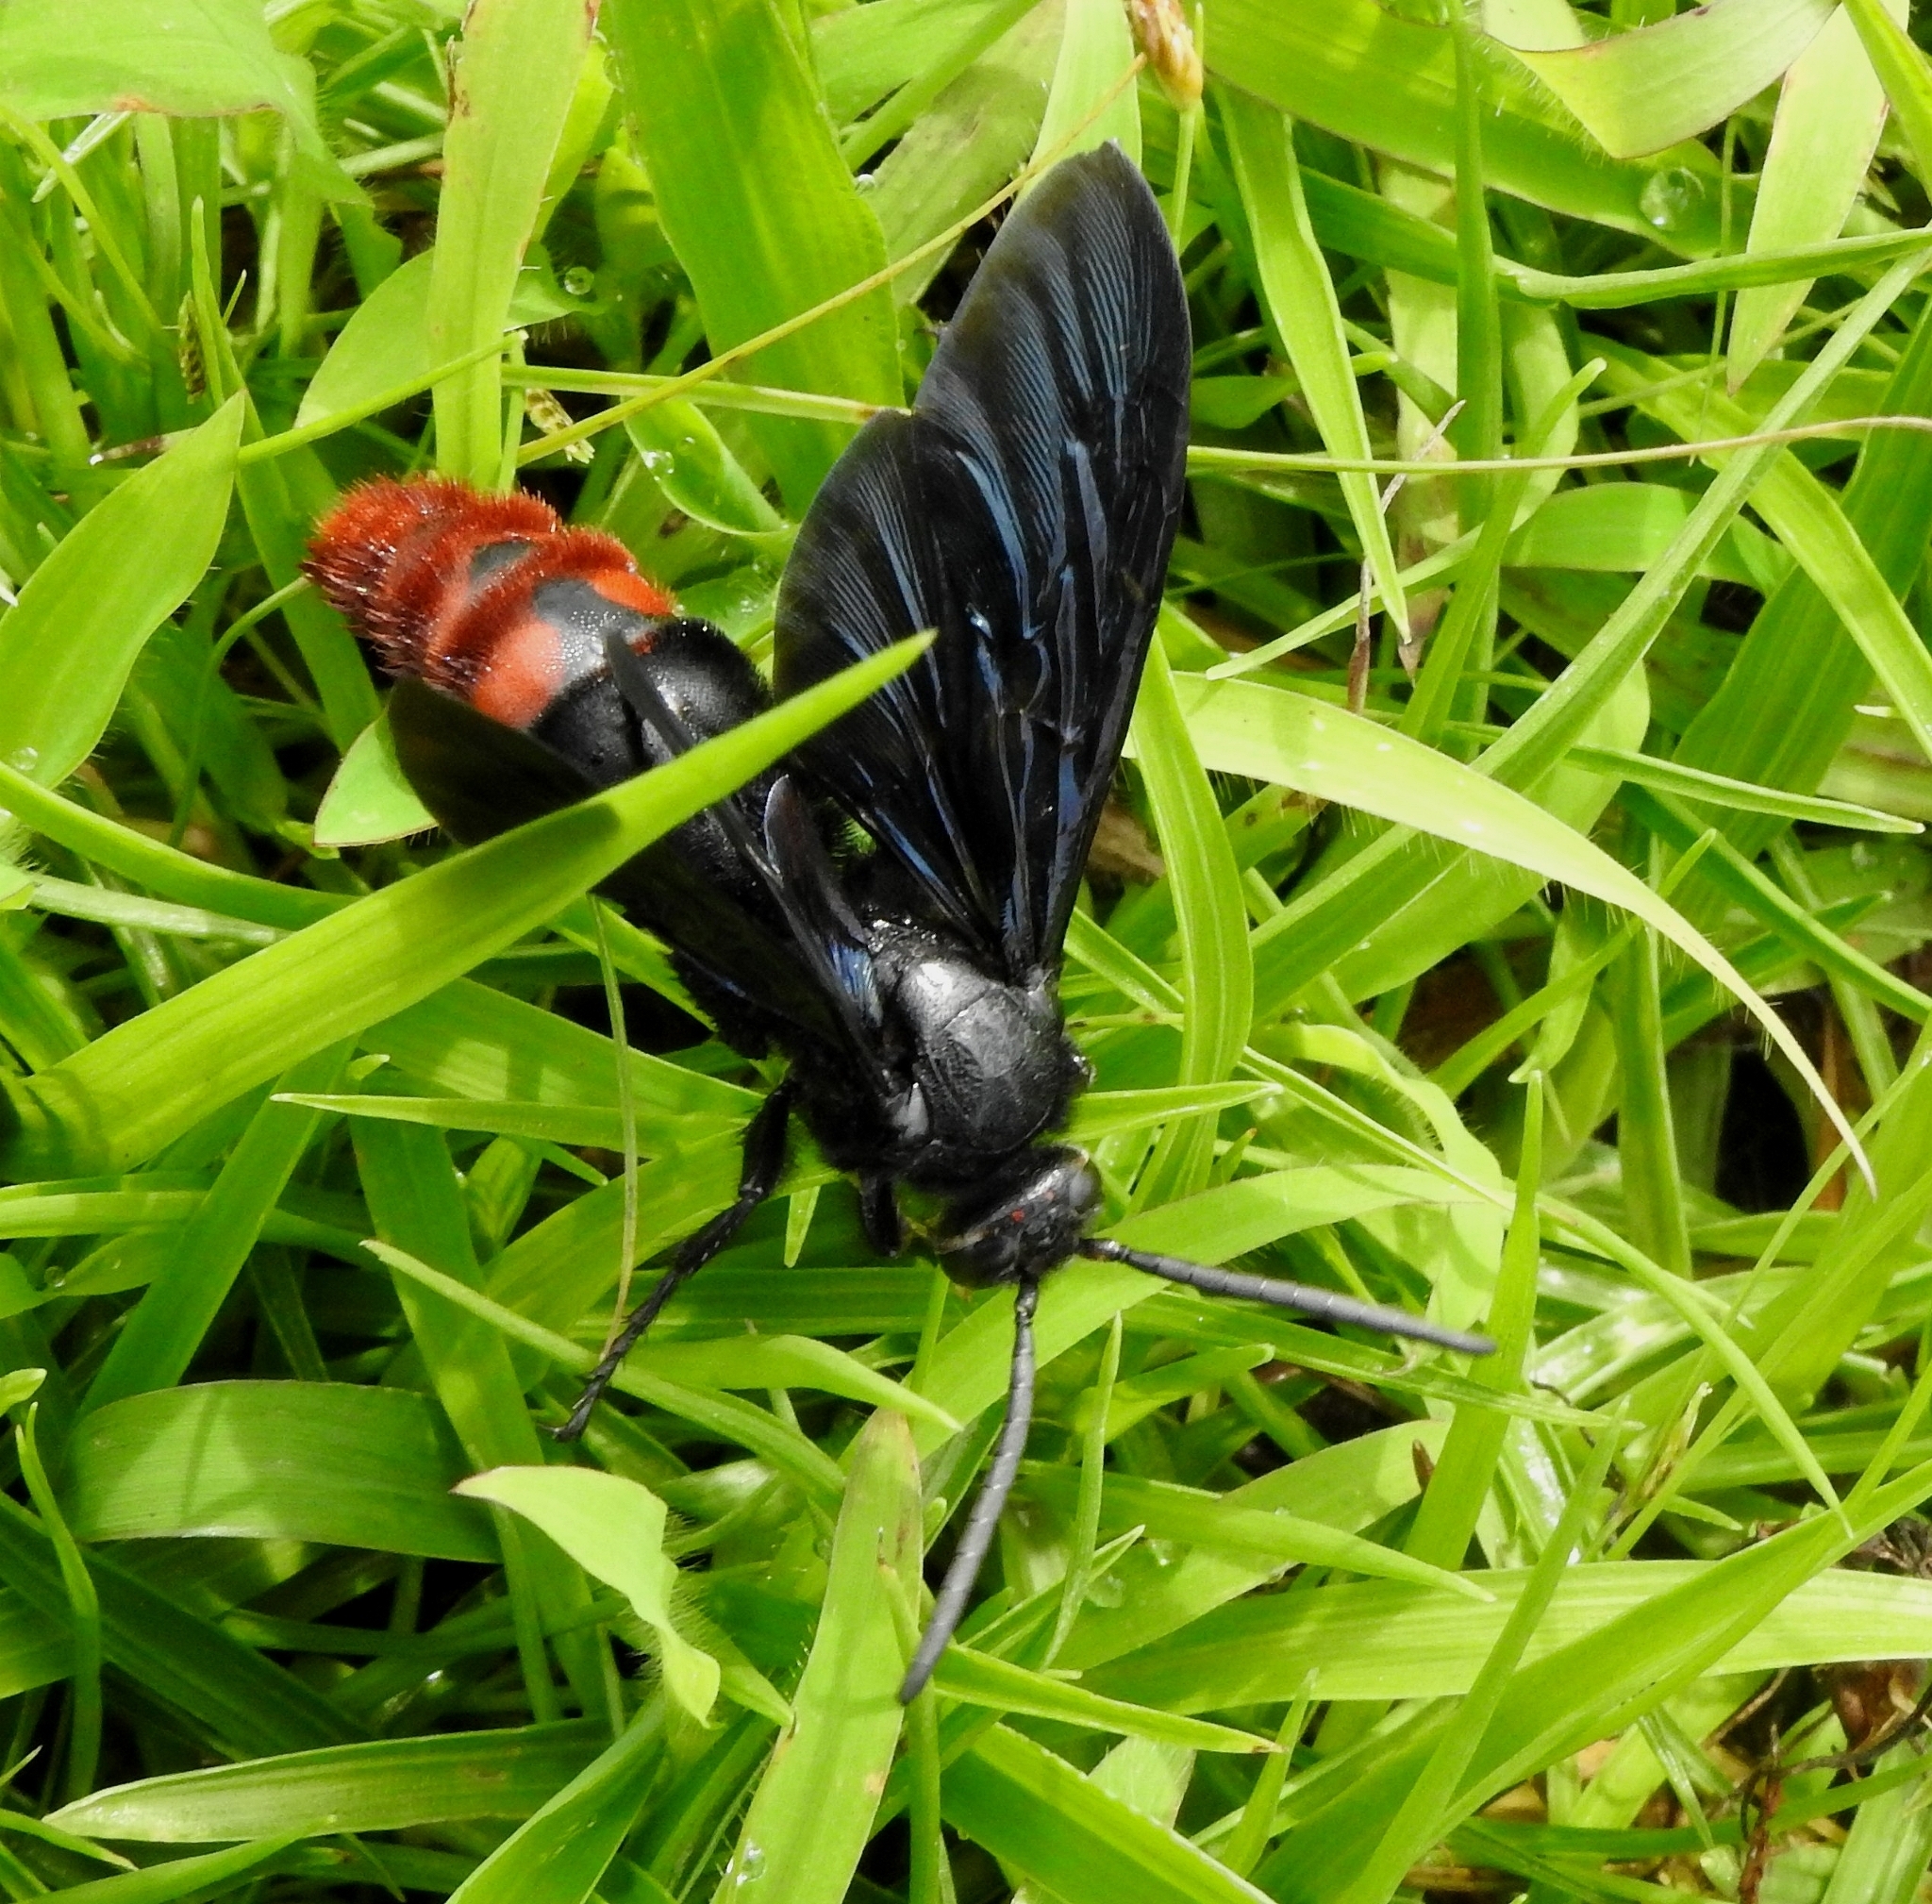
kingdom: Animalia
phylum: Arthropoda
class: Insecta
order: Hymenoptera
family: Scoliidae
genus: Megascolia
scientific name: Megascolia azurea
